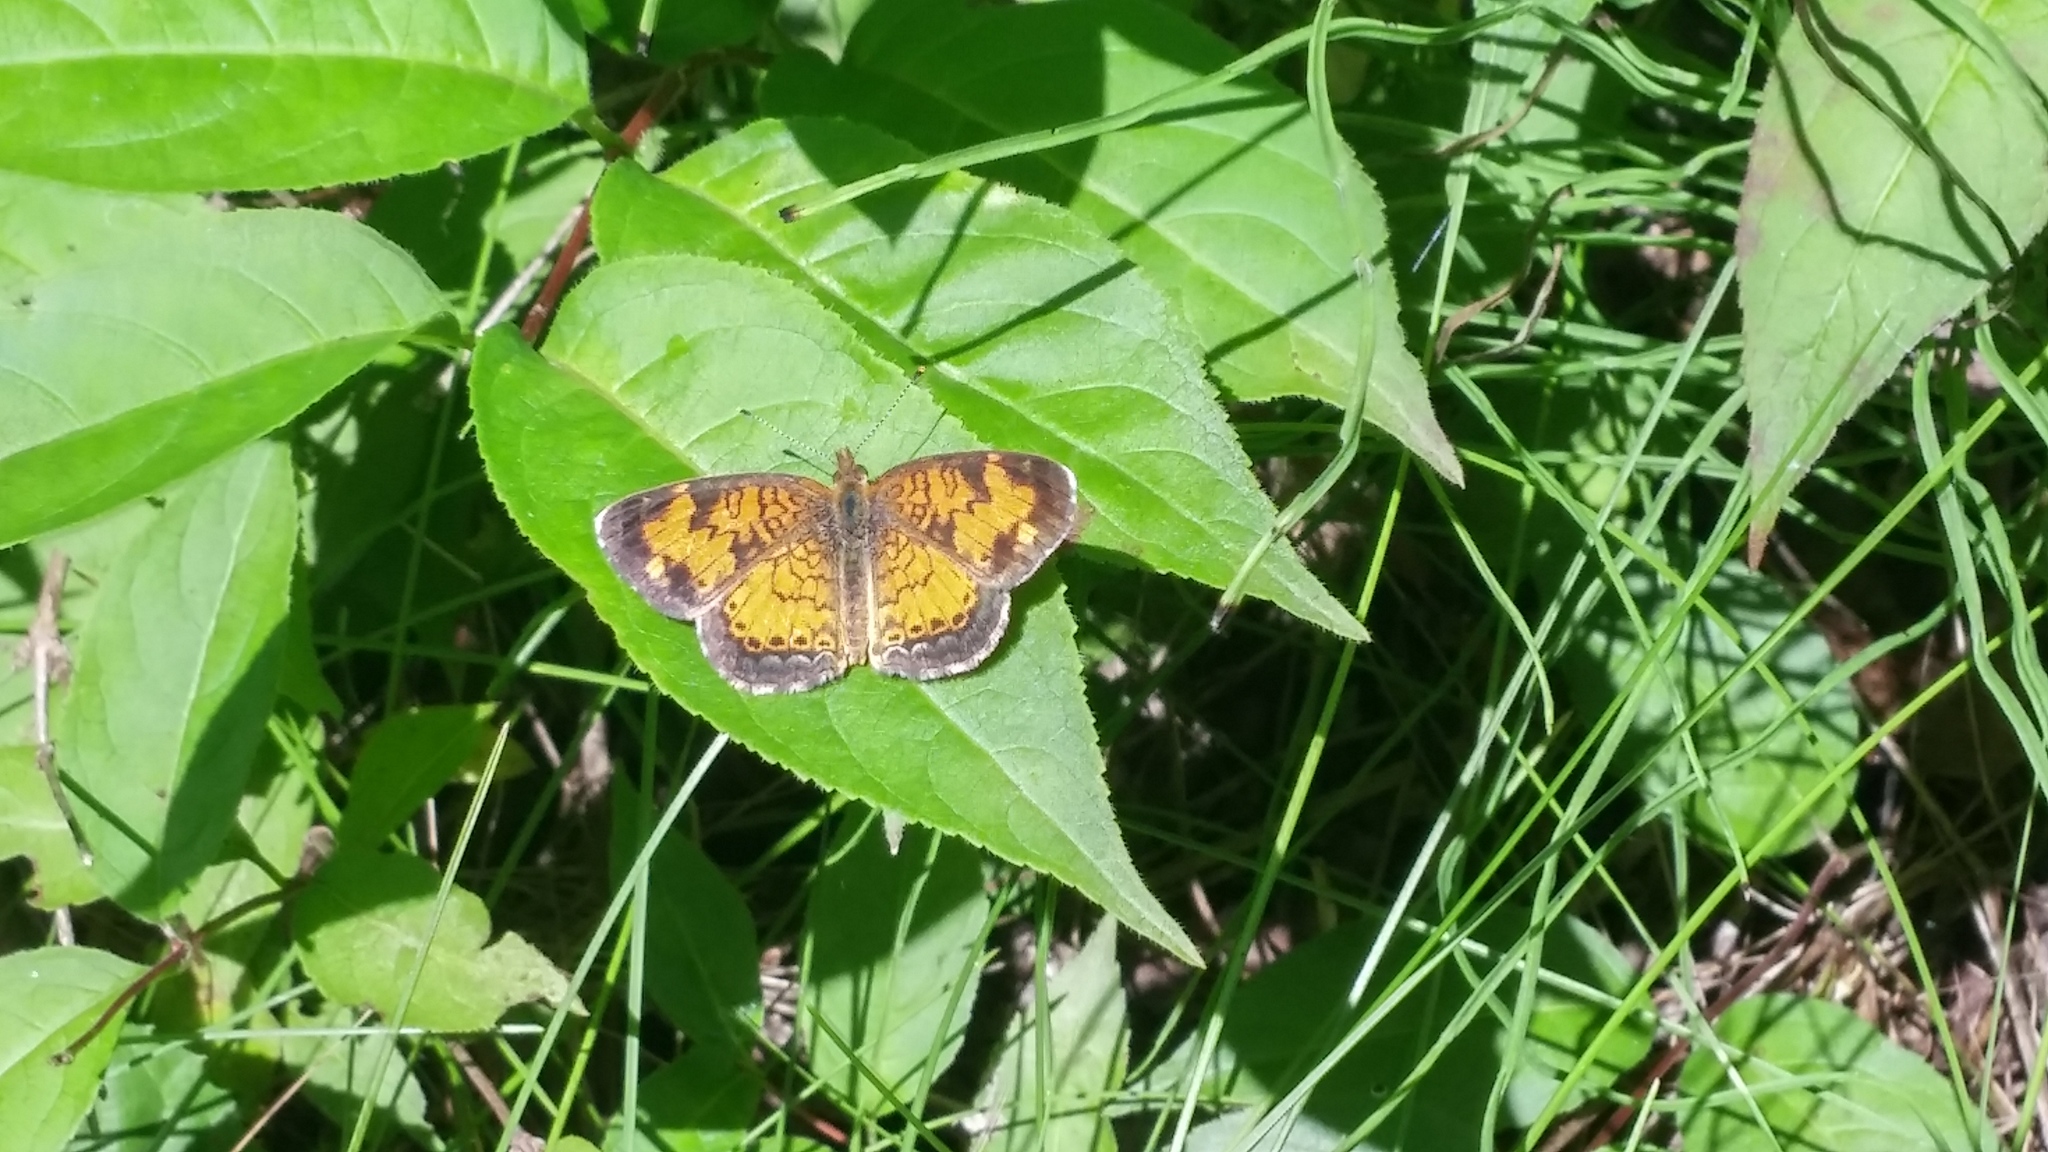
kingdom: Animalia
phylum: Arthropoda
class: Insecta
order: Lepidoptera
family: Nymphalidae
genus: Phyciodes
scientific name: Phyciodes tharos
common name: Pearl crescent
